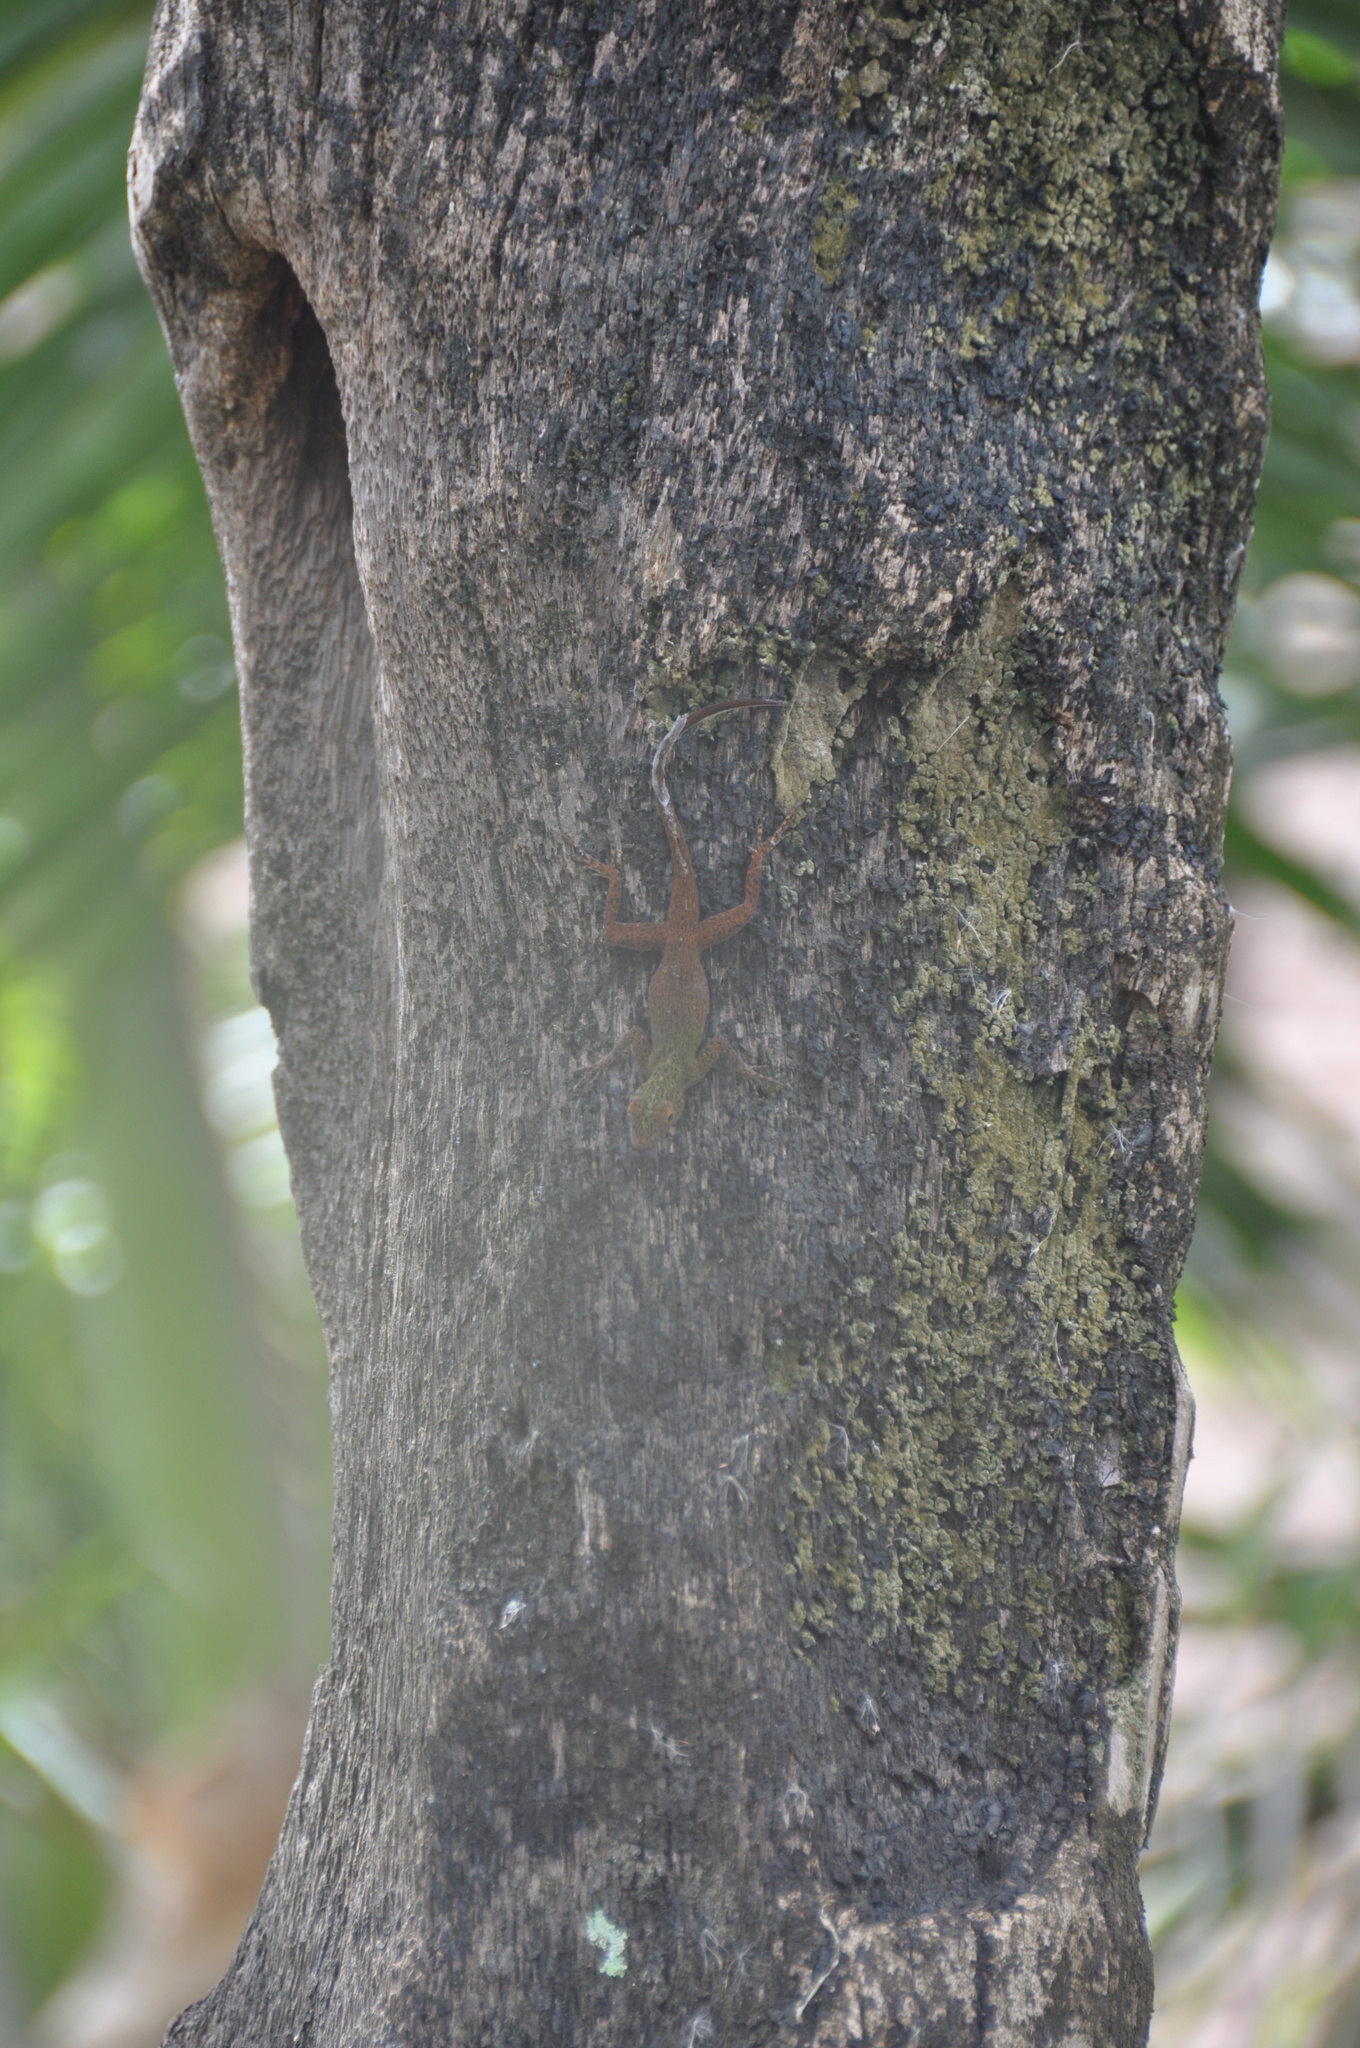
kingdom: Animalia
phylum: Chordata
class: Squamata
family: Dactyloidae
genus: Anolis
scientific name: Anolis distichus
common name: Bark anole
